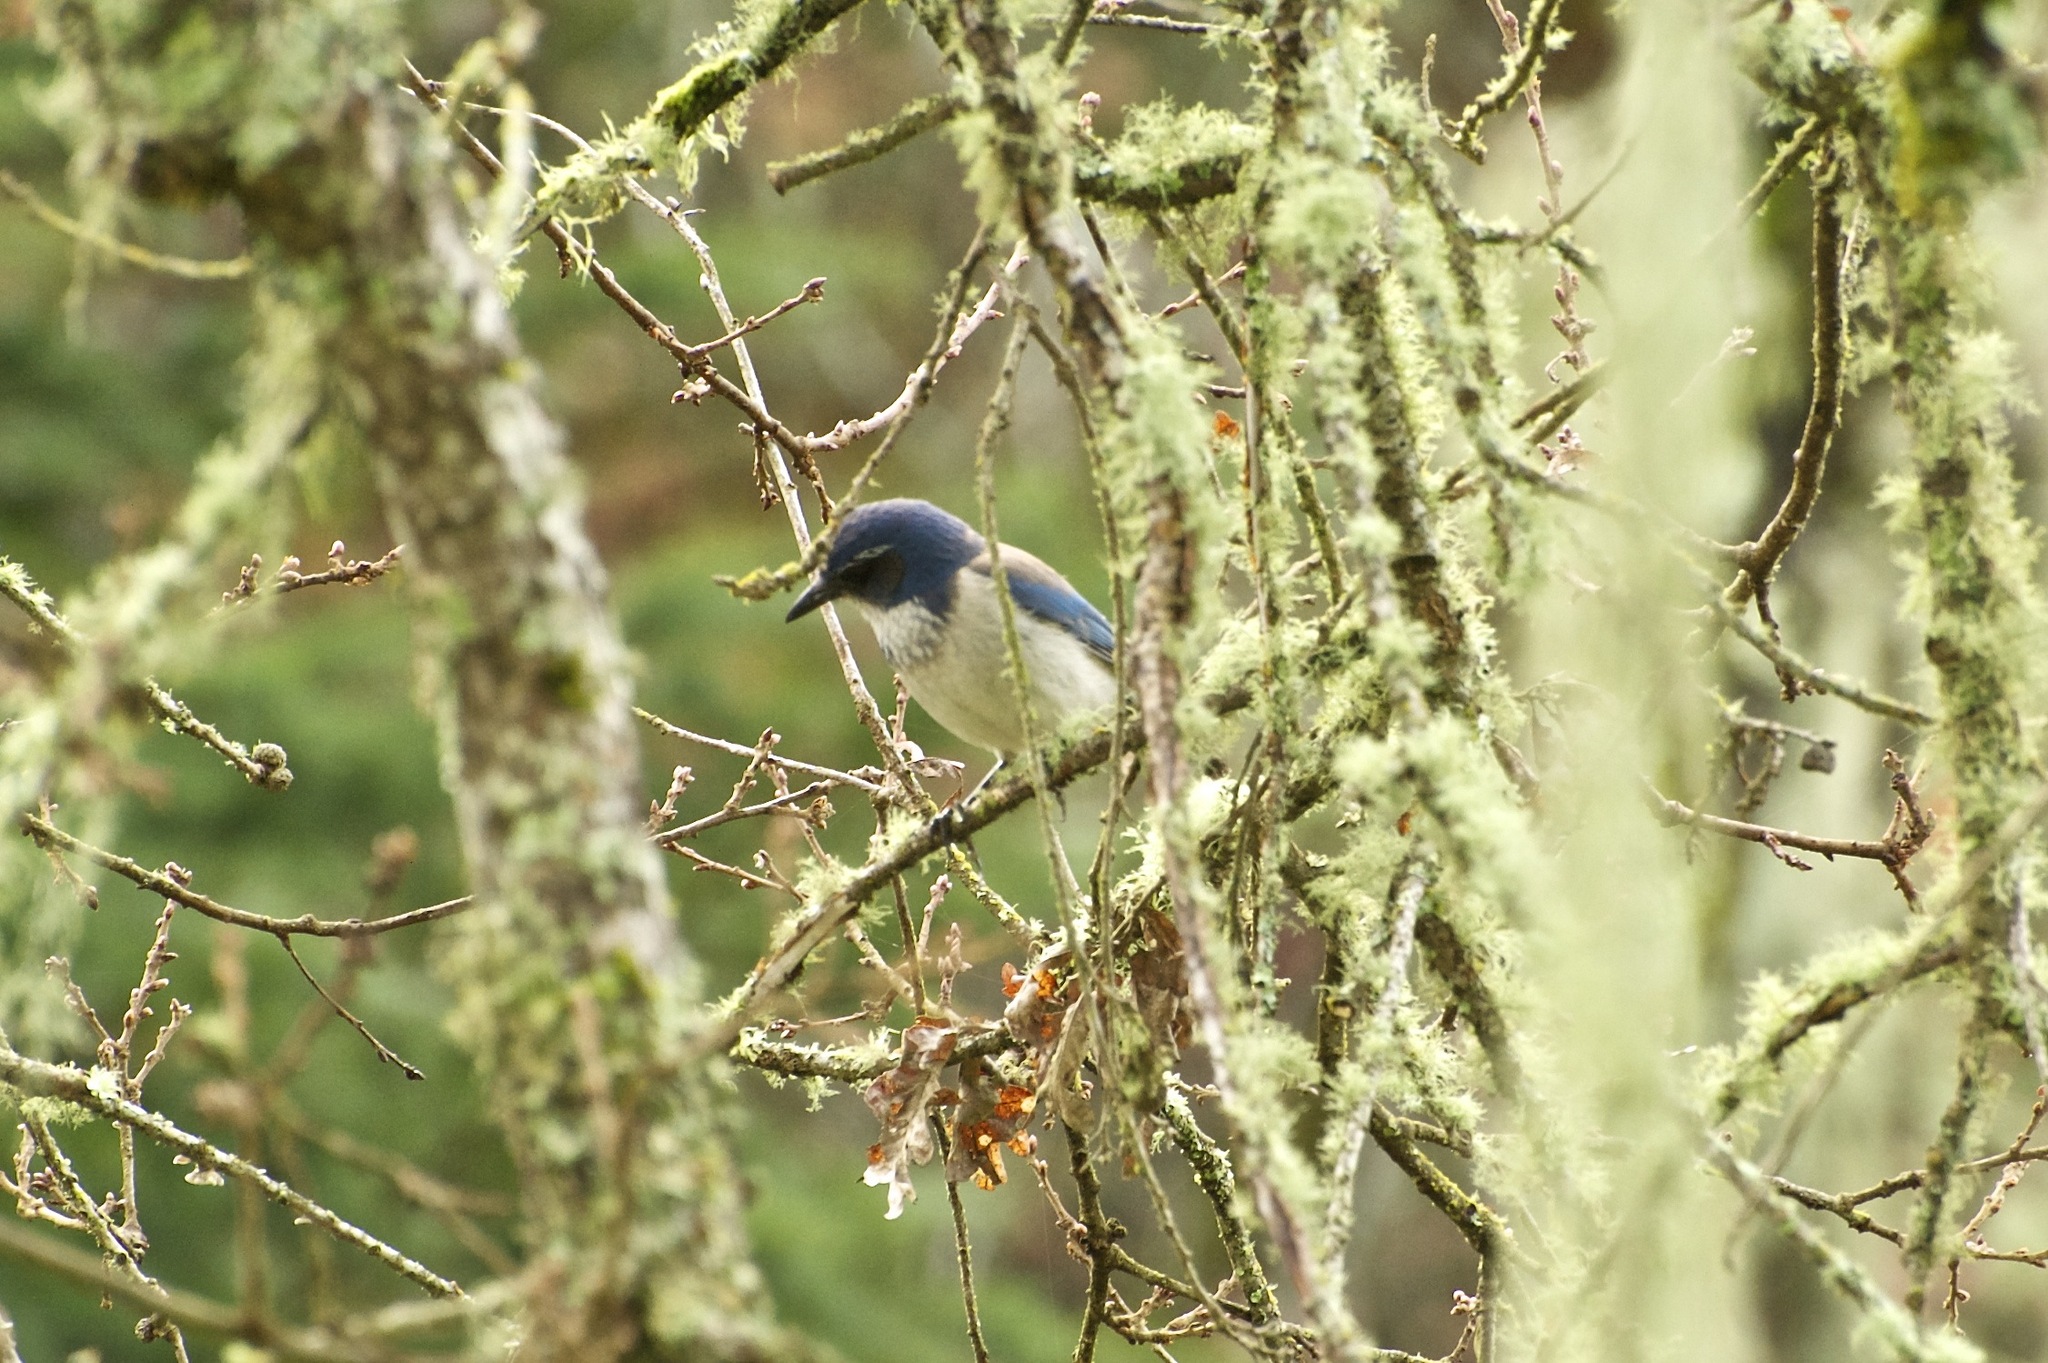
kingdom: Animalia
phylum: Chordata
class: Aves
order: Passeriformes
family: Corvidae
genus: Aphelocoma
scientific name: Aphelocoma californica
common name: California scrub-jay
